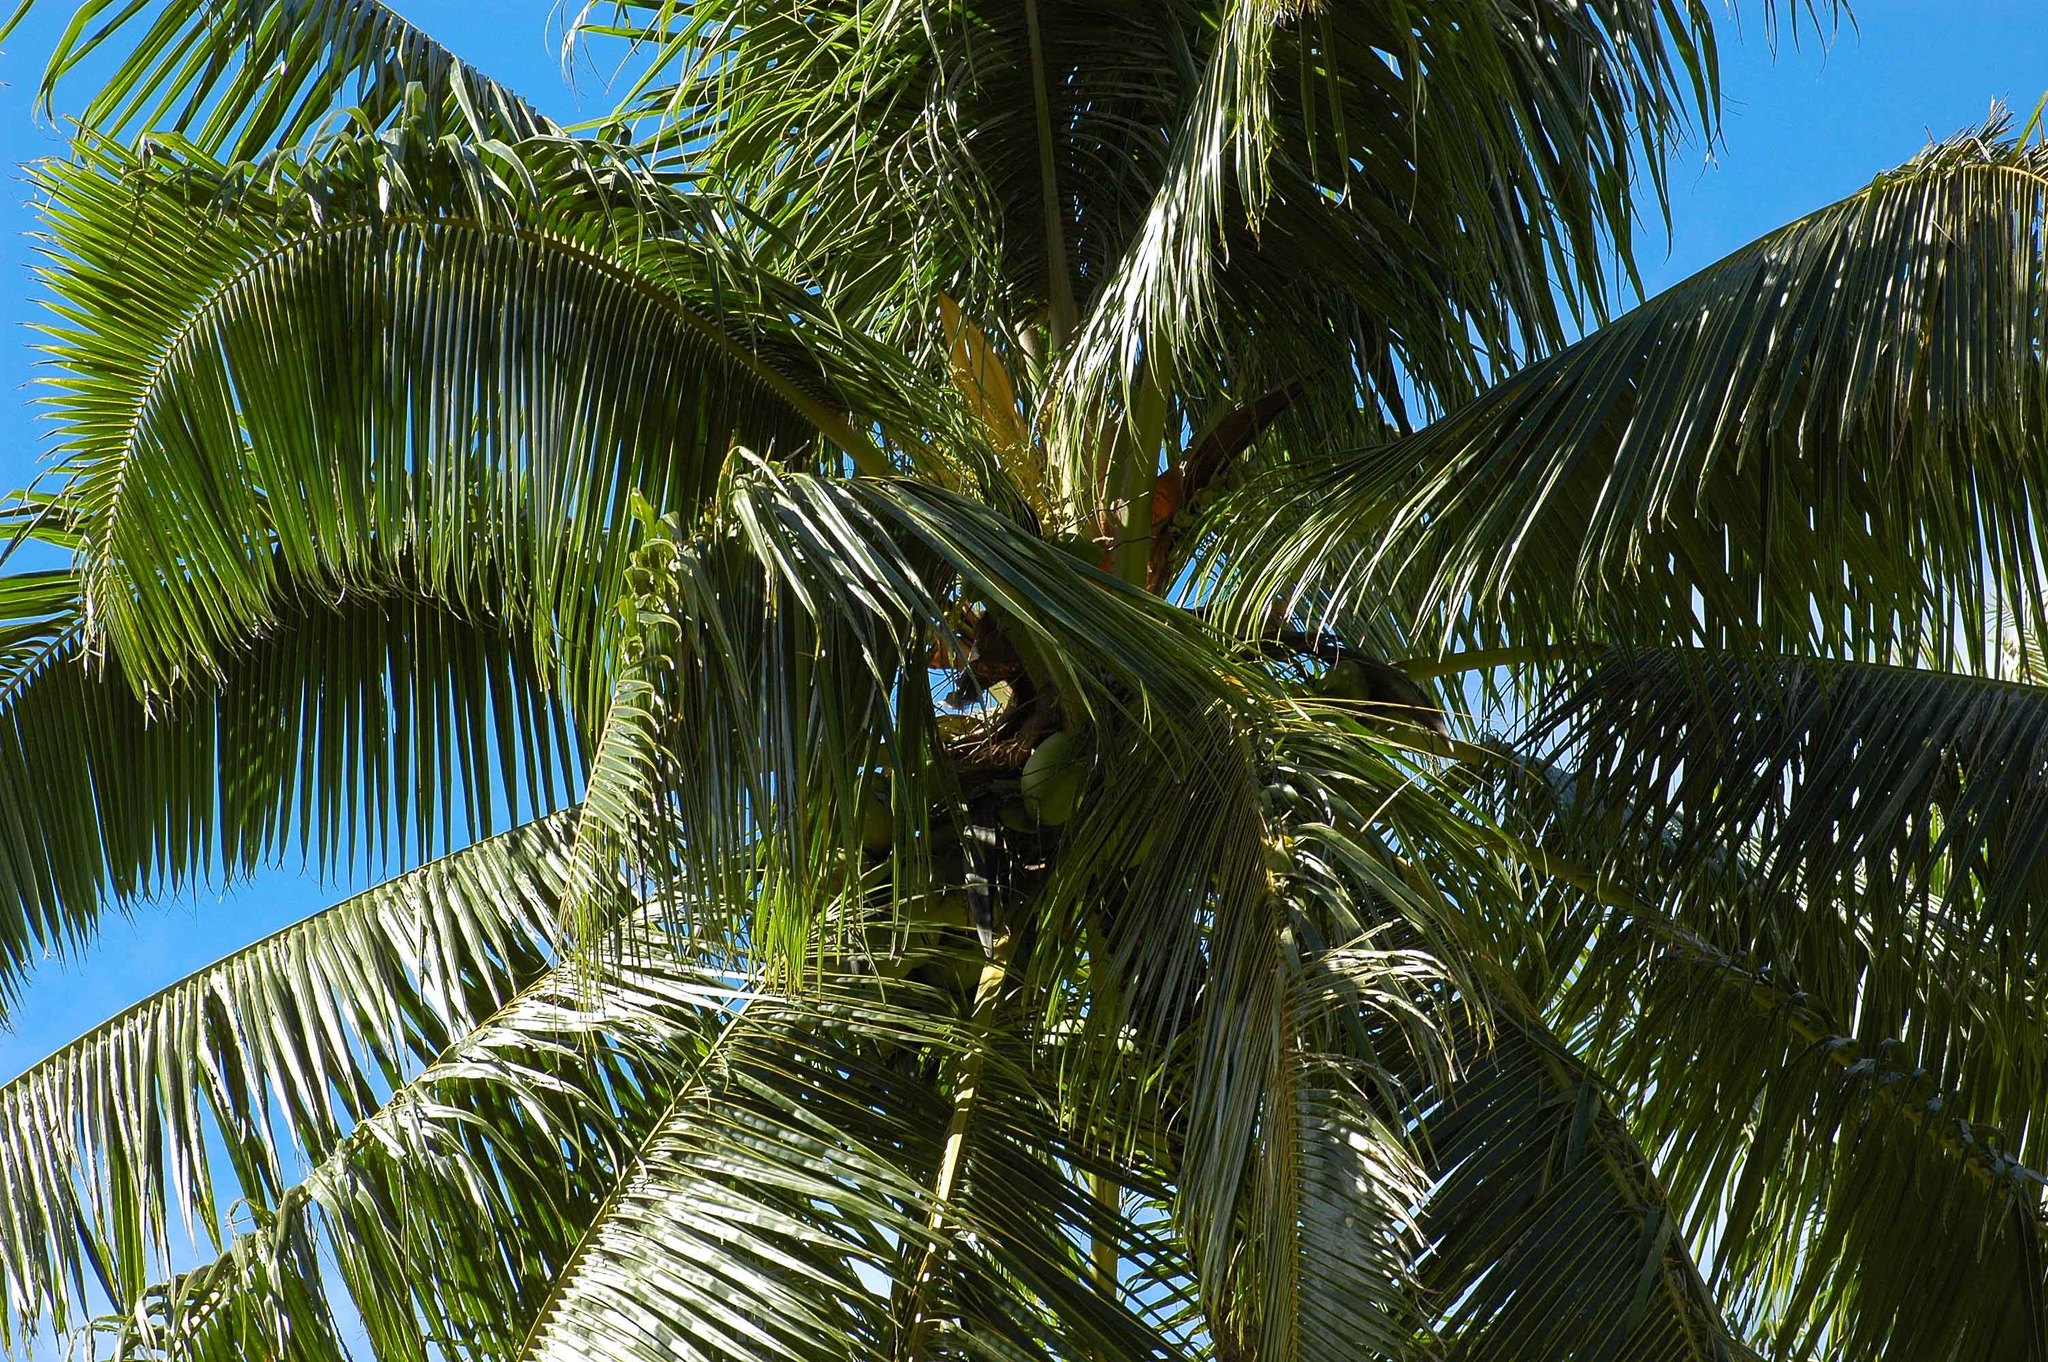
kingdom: Plantae
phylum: Tracheophyta
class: Liliopsida
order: Arecales
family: Arecaceae
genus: Cocos
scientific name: Cocos nucifera
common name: Coconut palm
